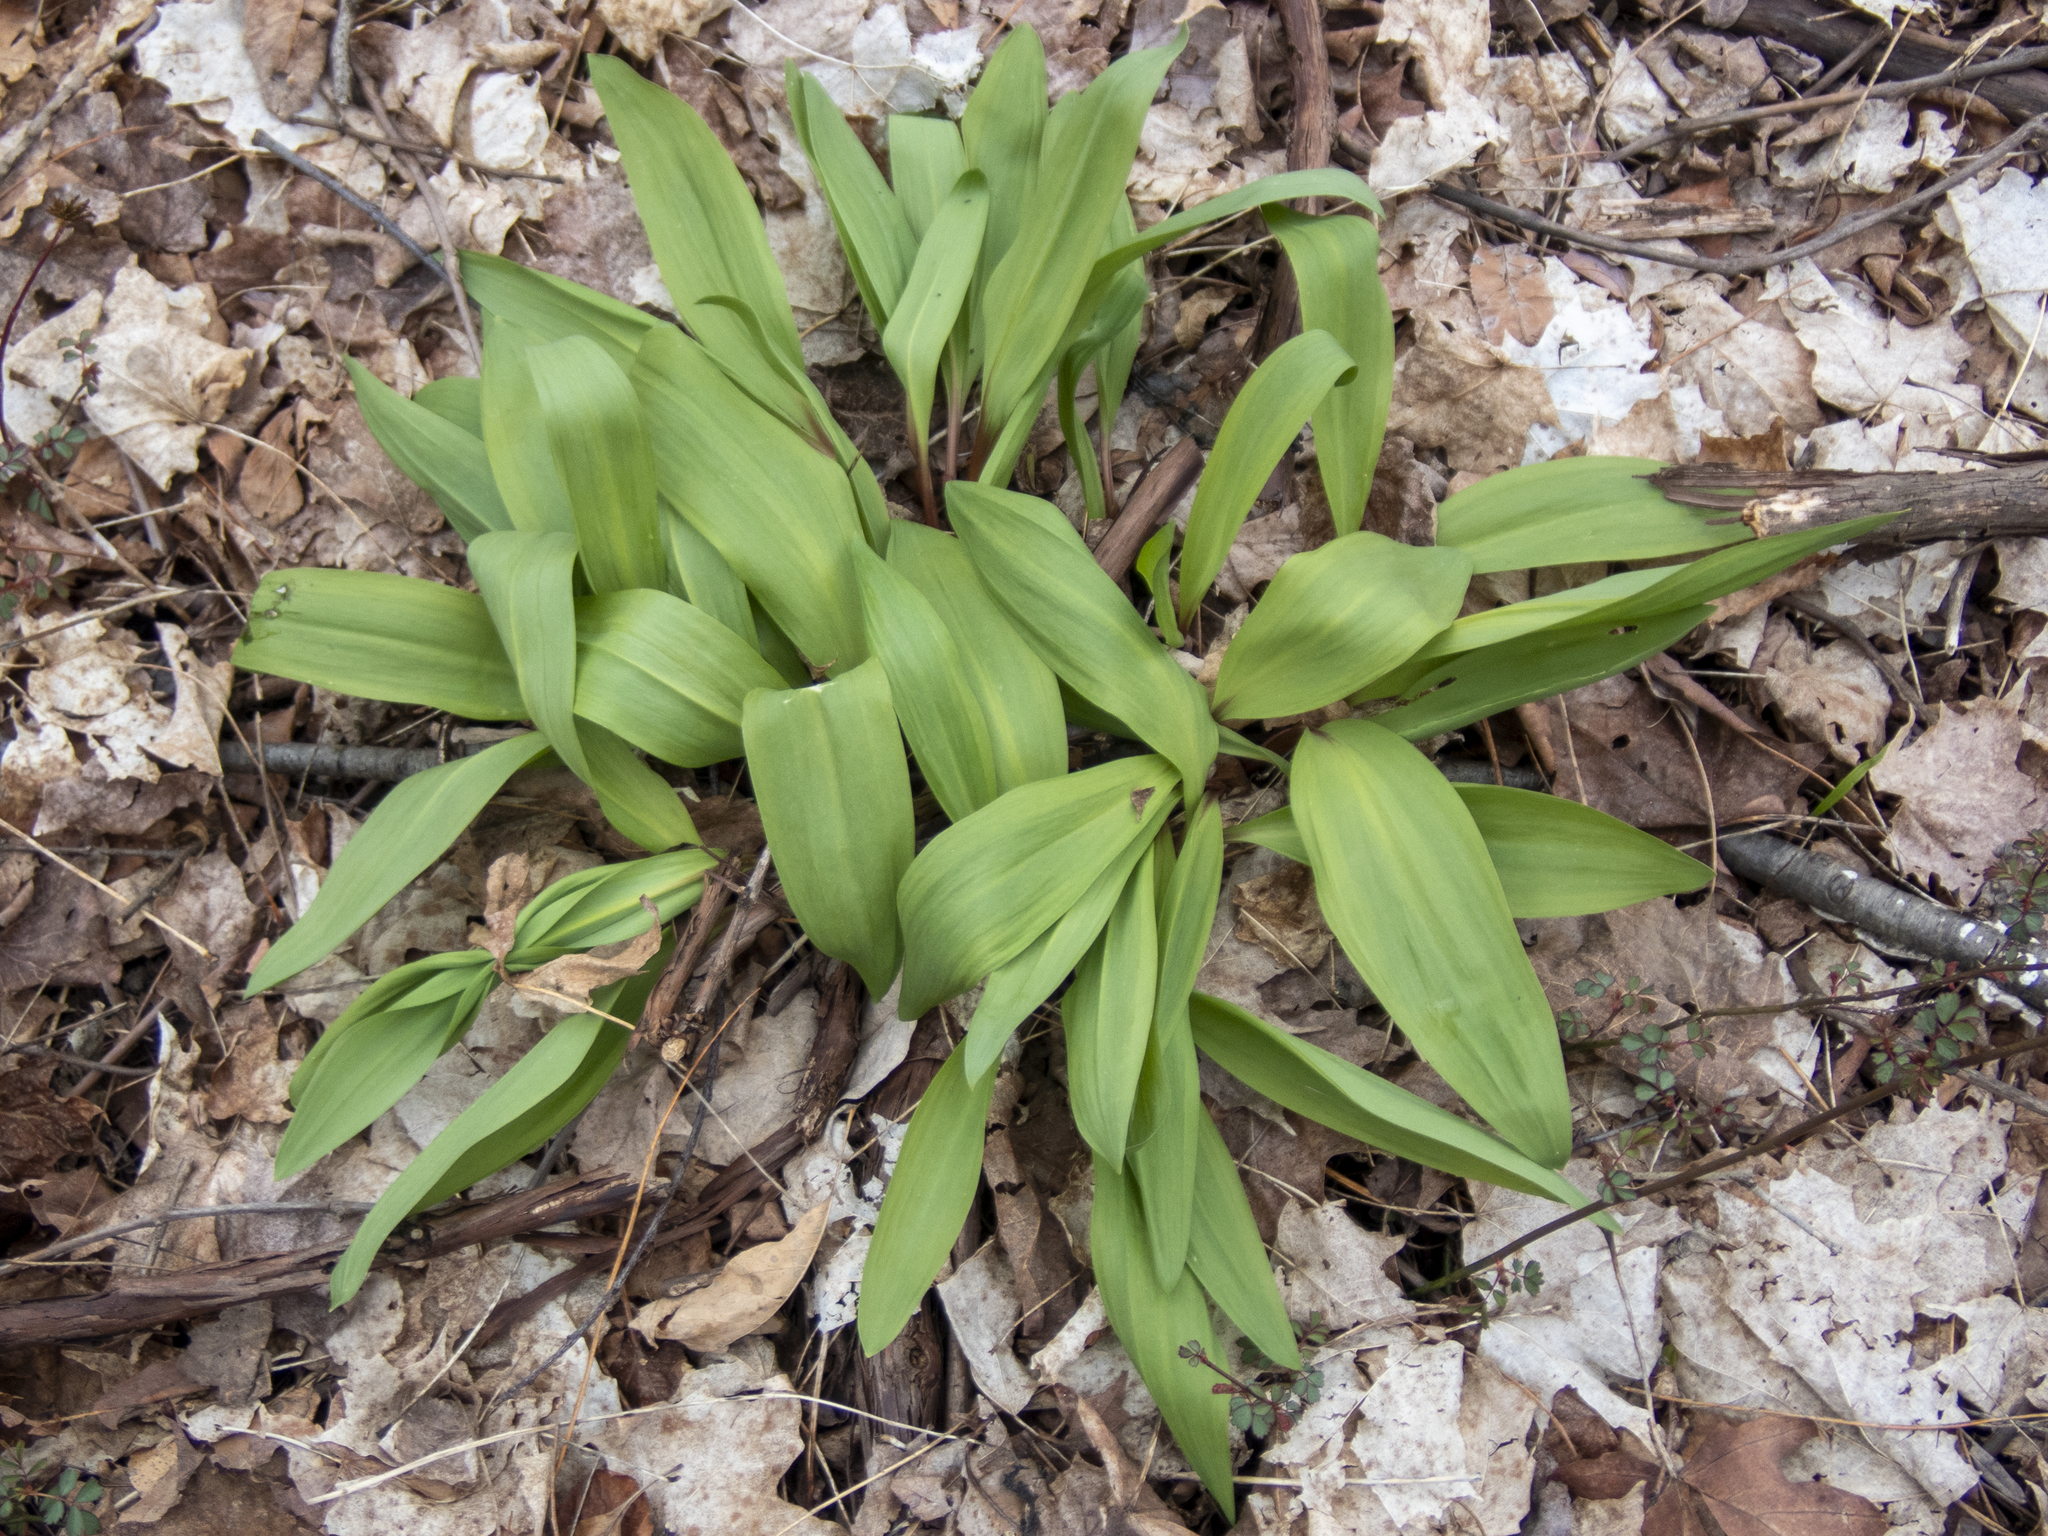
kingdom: Plantae
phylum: Tracheophyta
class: Liliopsida
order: Asparagales
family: Amaryllidaceae
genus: Allium
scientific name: Allium tricoccum
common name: Ramp
